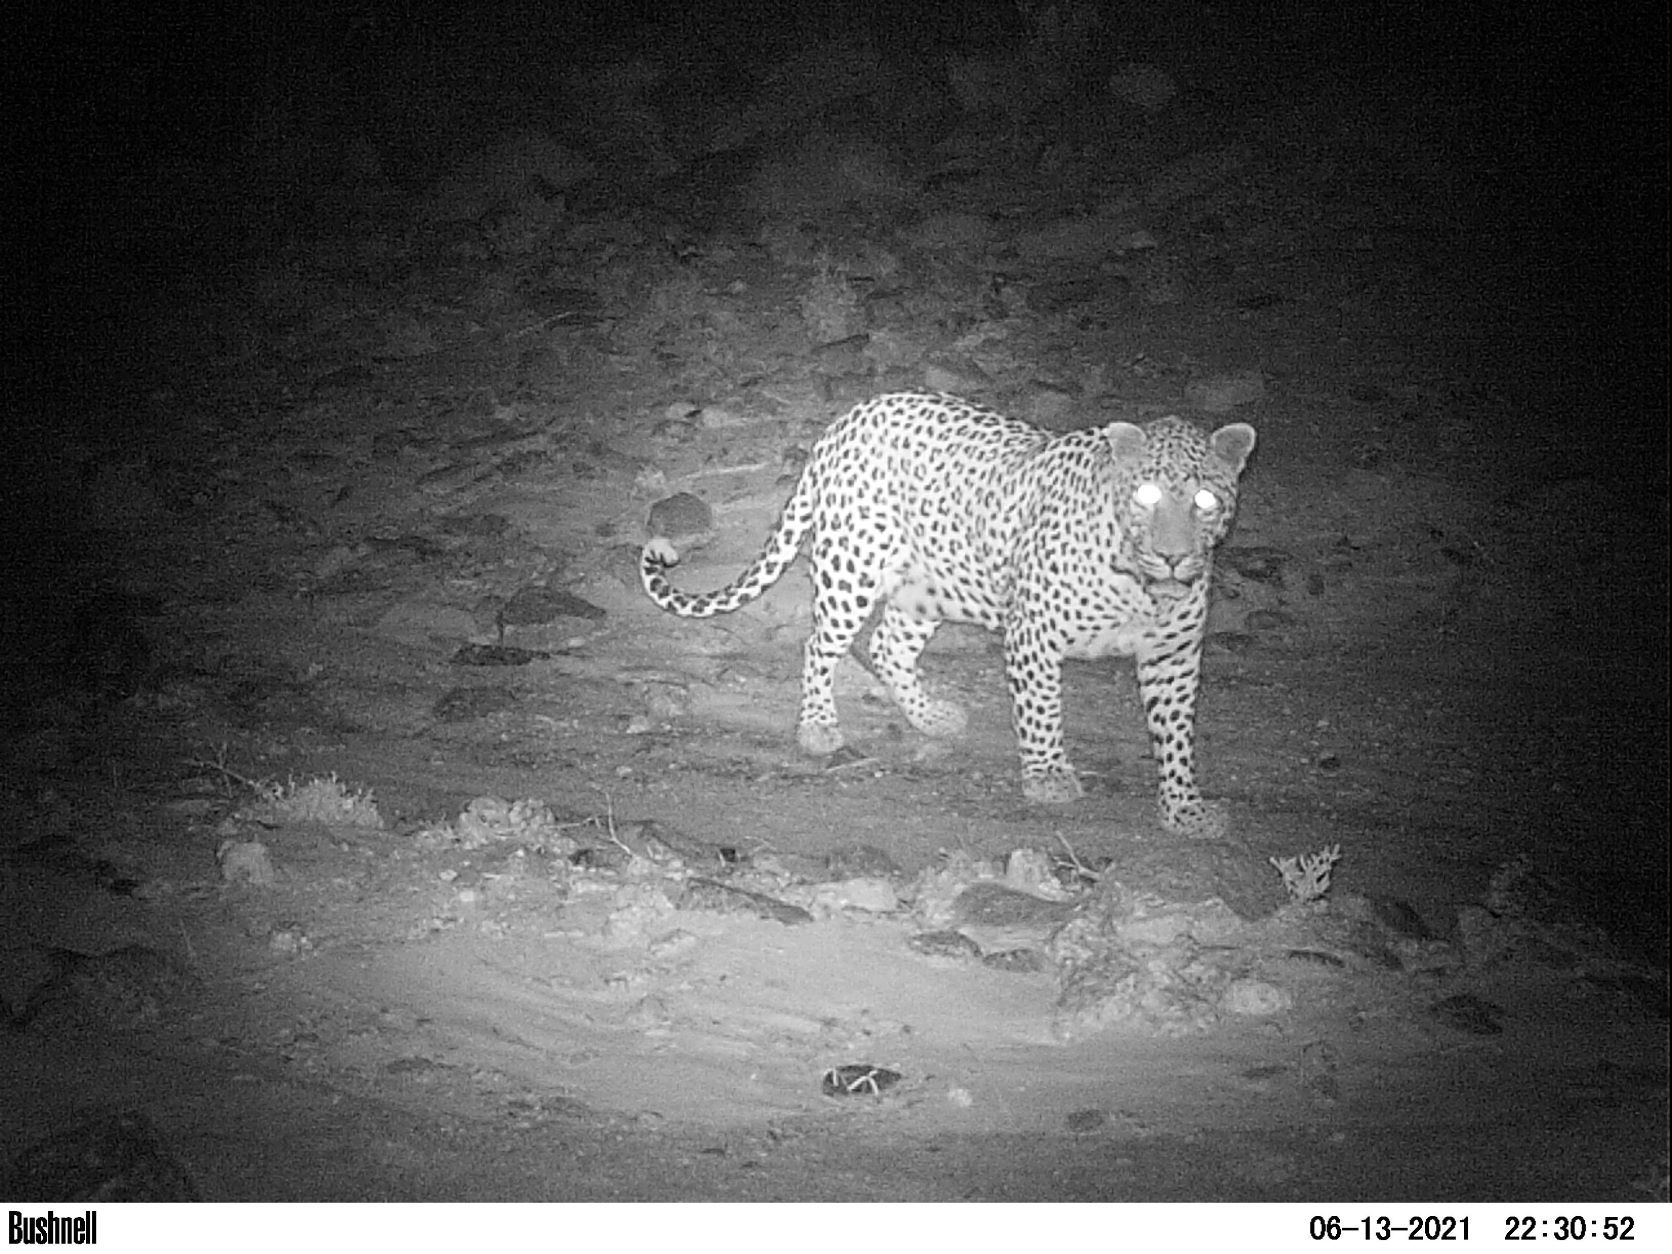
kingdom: Animalia
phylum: Chordata
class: Mammalia
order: Carnivora
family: Felidae
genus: Panthera
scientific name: Panthera pardus
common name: Leopard
